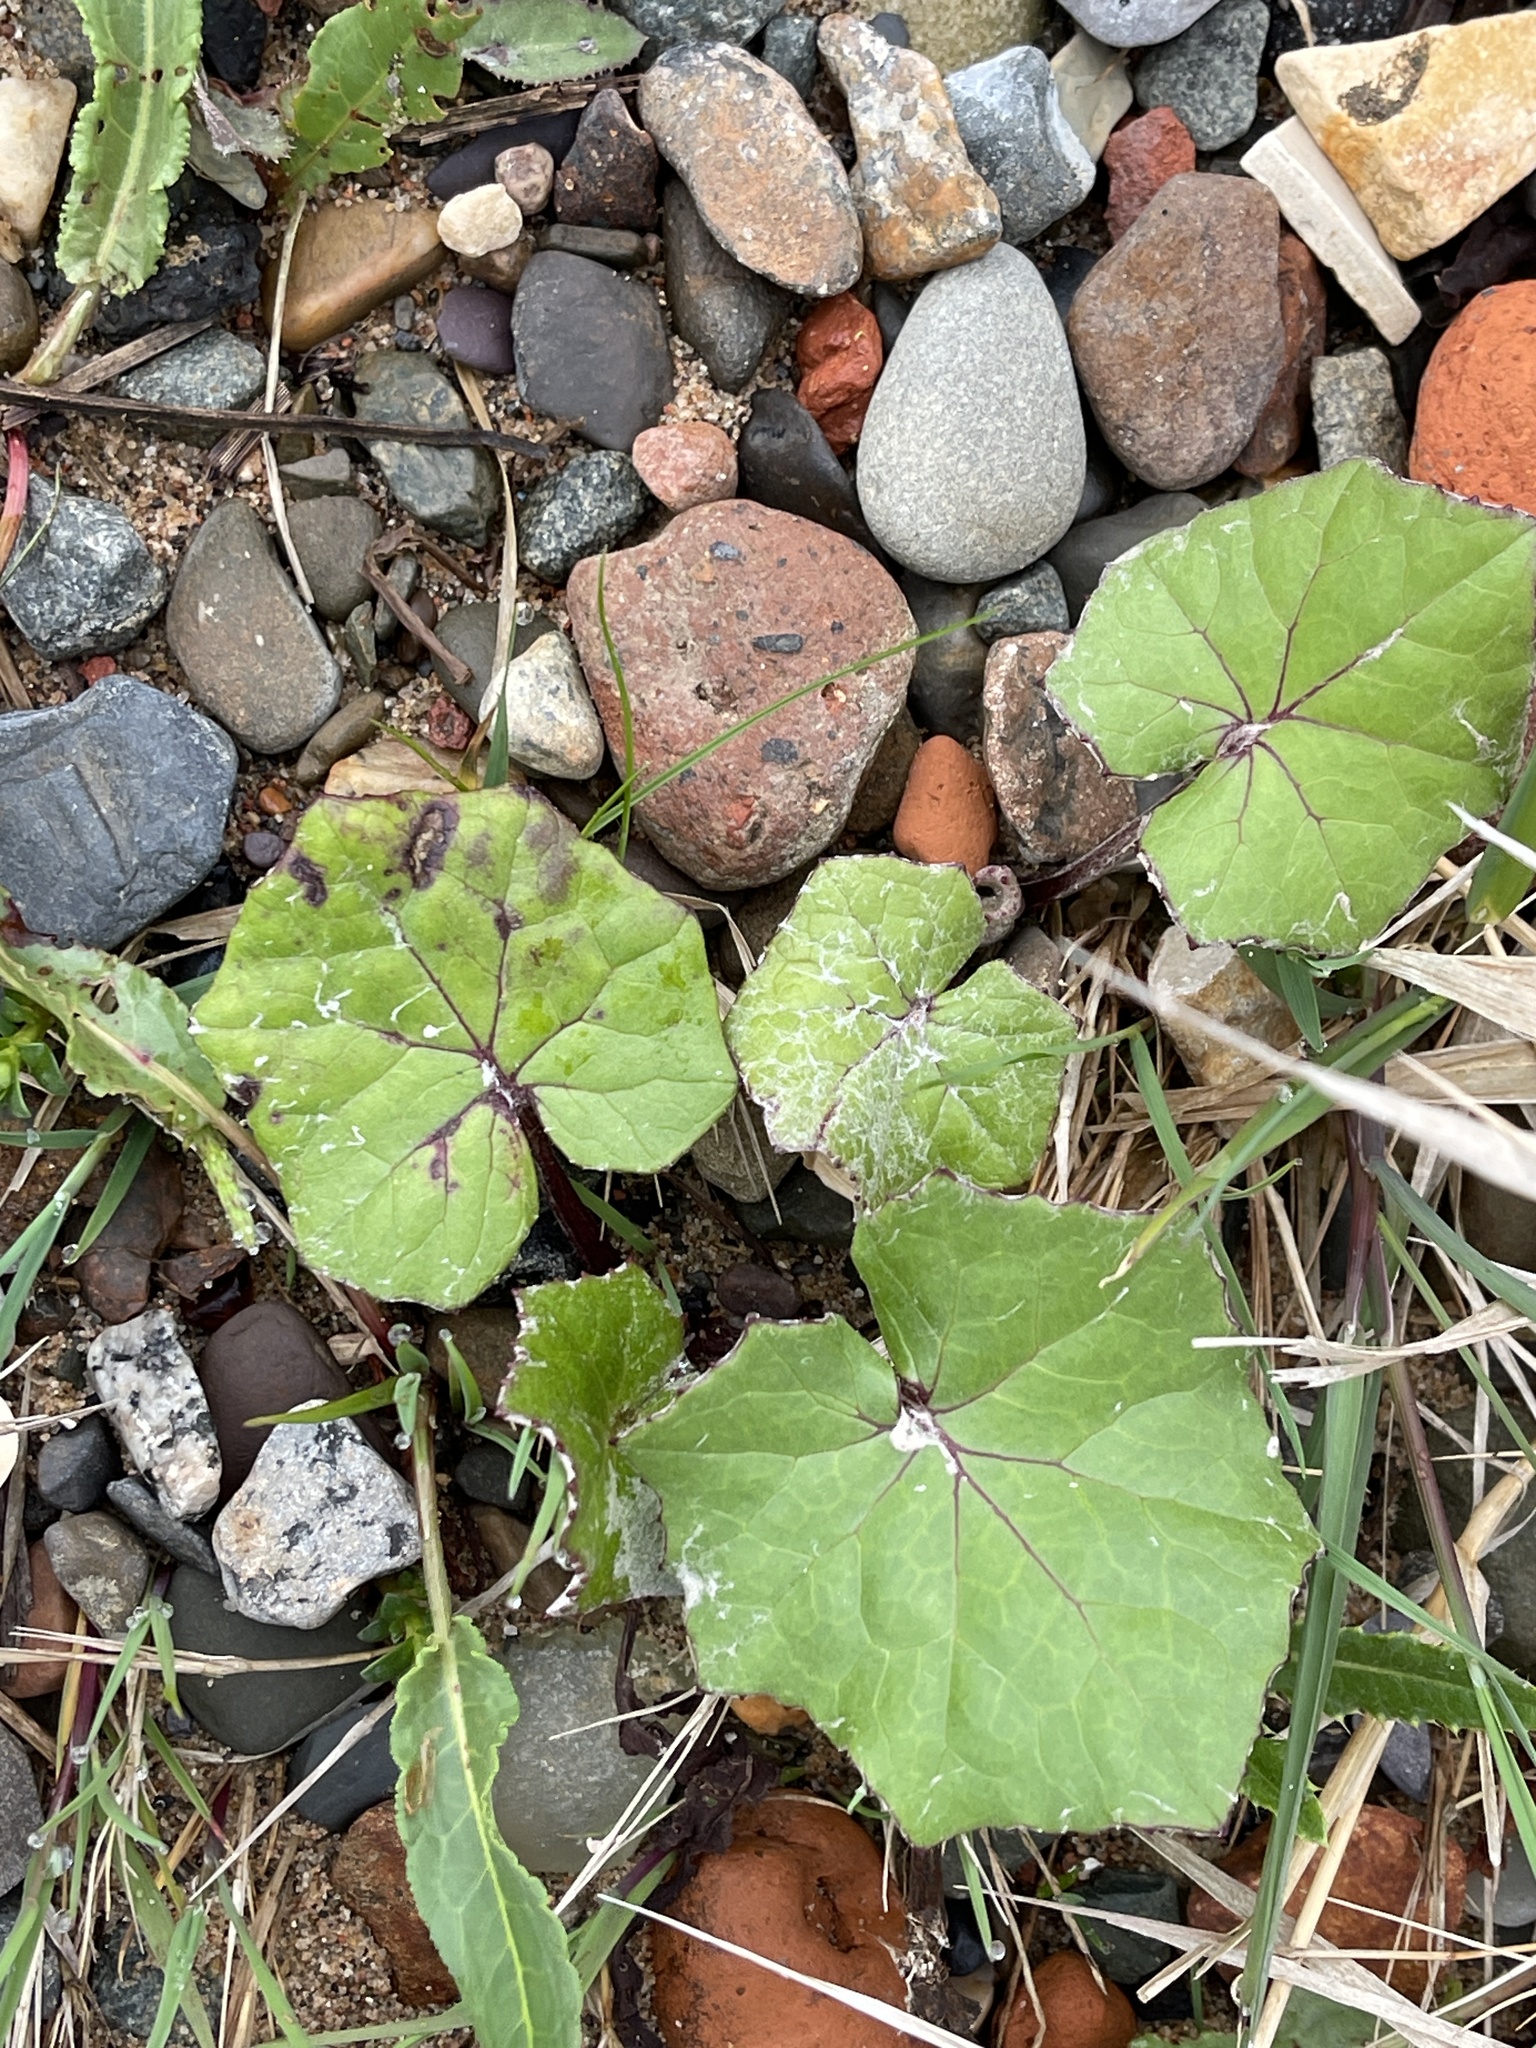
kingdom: Plantae
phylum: Tracheophyta
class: Magnoliopsida
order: Asterales
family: Asteraceae
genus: Tussilago
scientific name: Tussilago farfara
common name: Coltsfoot
